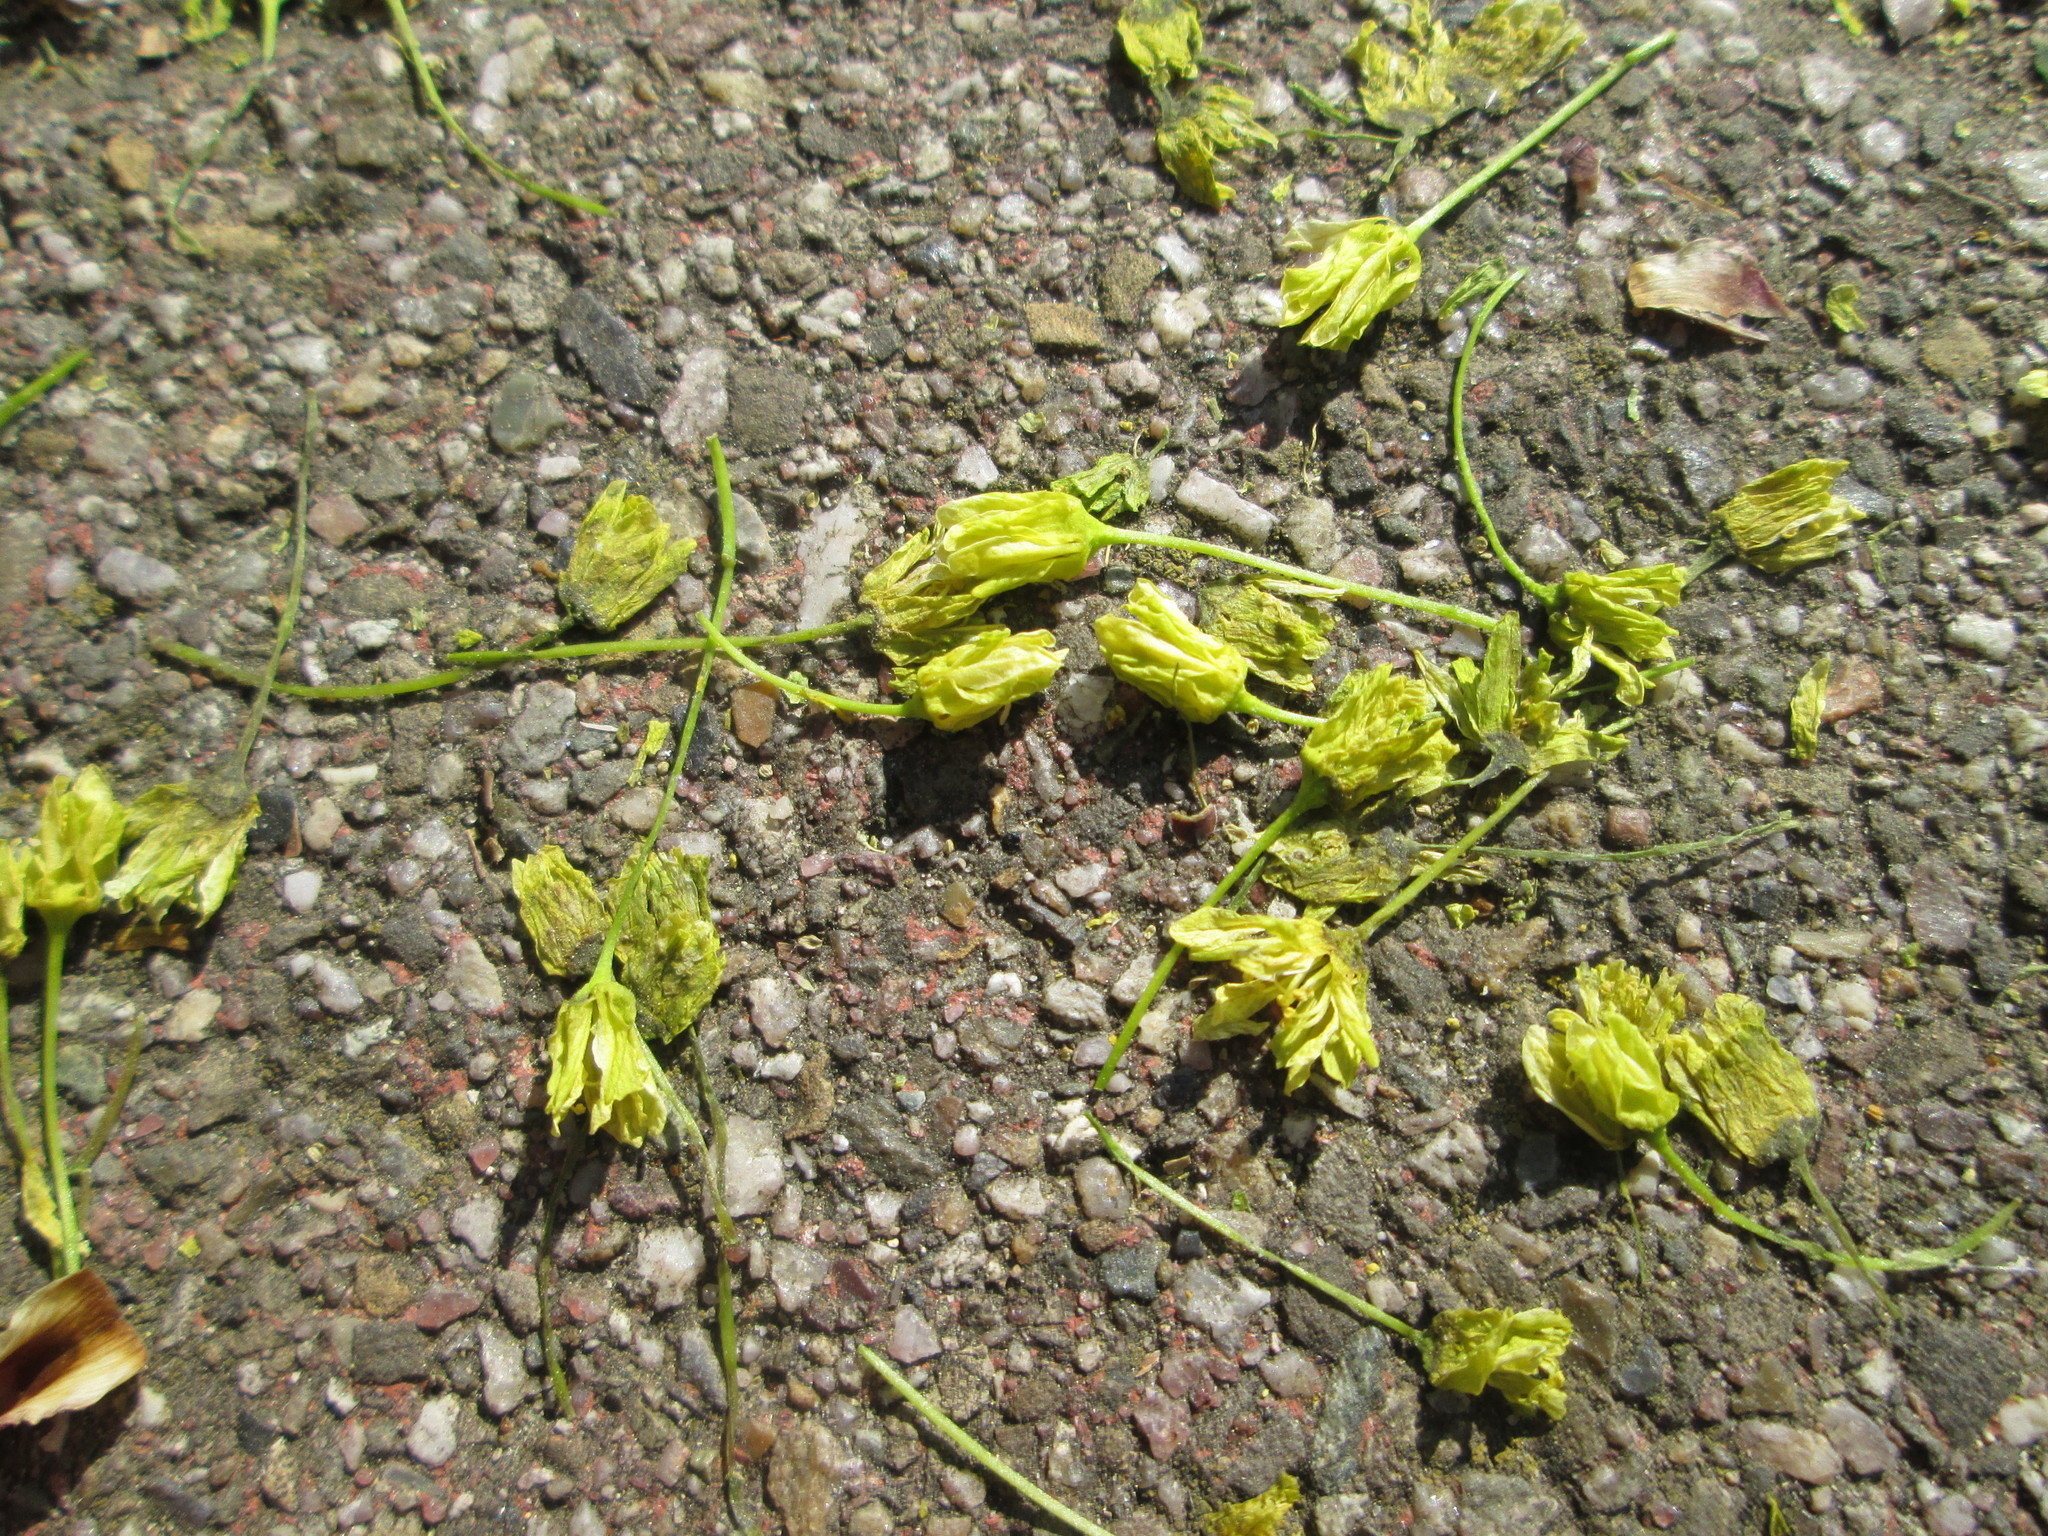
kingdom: Plantae
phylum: Tracheophyta
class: Magnoliopsida
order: Sapindales
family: Sapindaceae
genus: Acer
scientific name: Acer platanoides
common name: Norway maple
